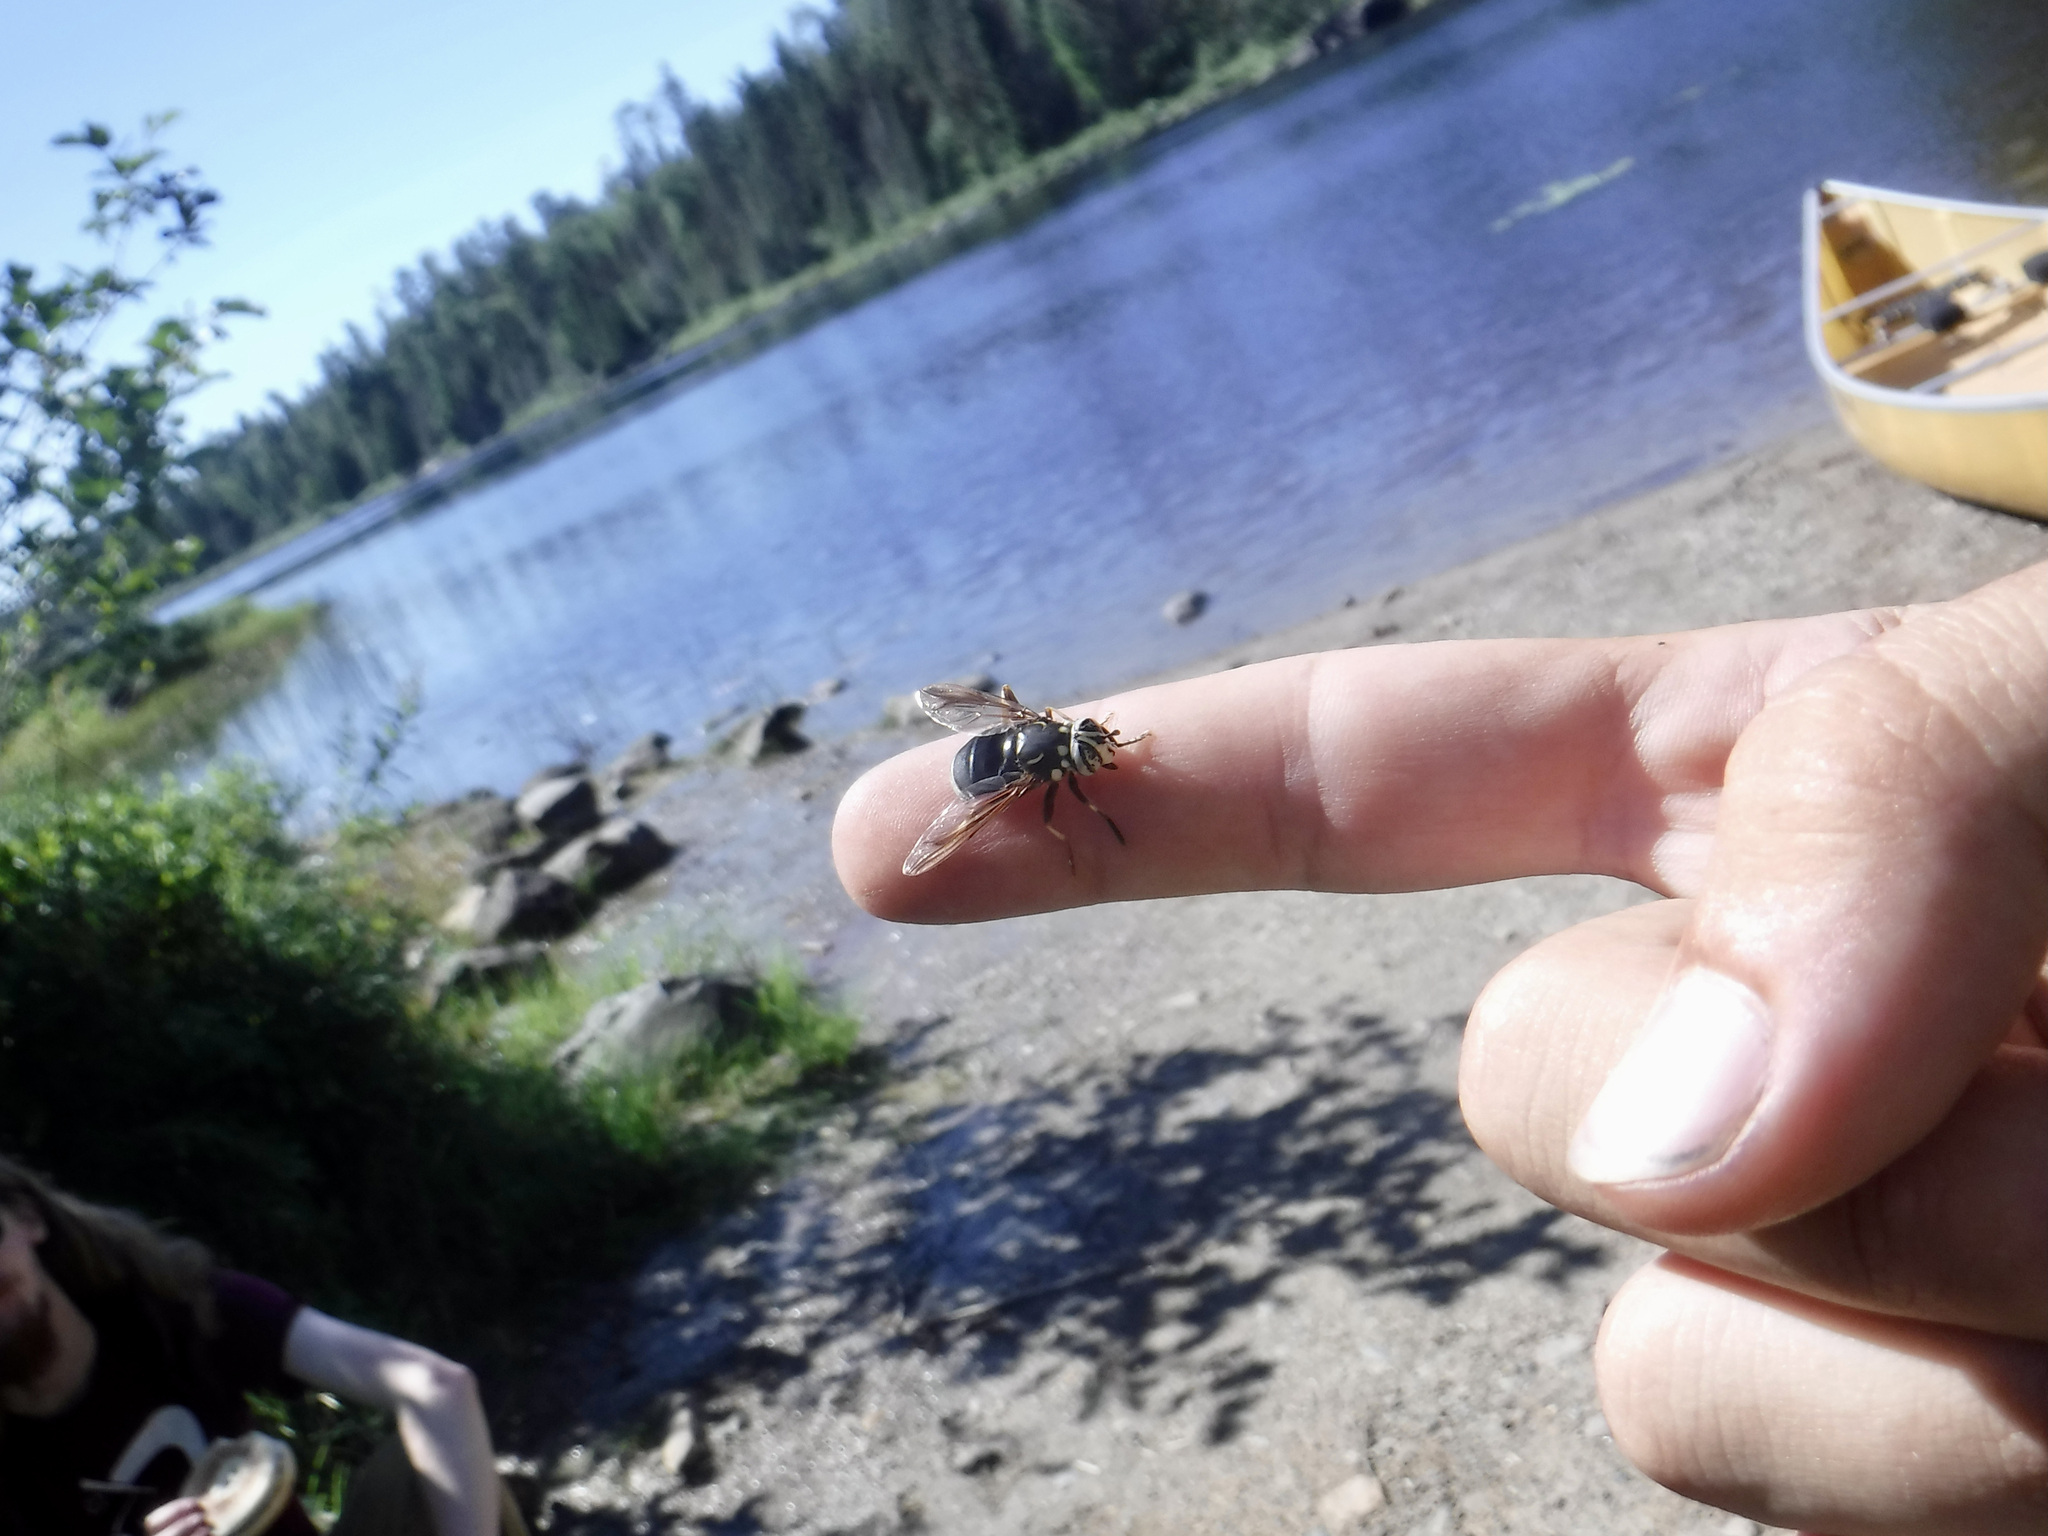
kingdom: Animalia
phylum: Arthropoda
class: Insecta
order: Diptera
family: Syrphidae
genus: Spilomyia
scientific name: Spilomyia fusca
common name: Bald-faced hornet fly
